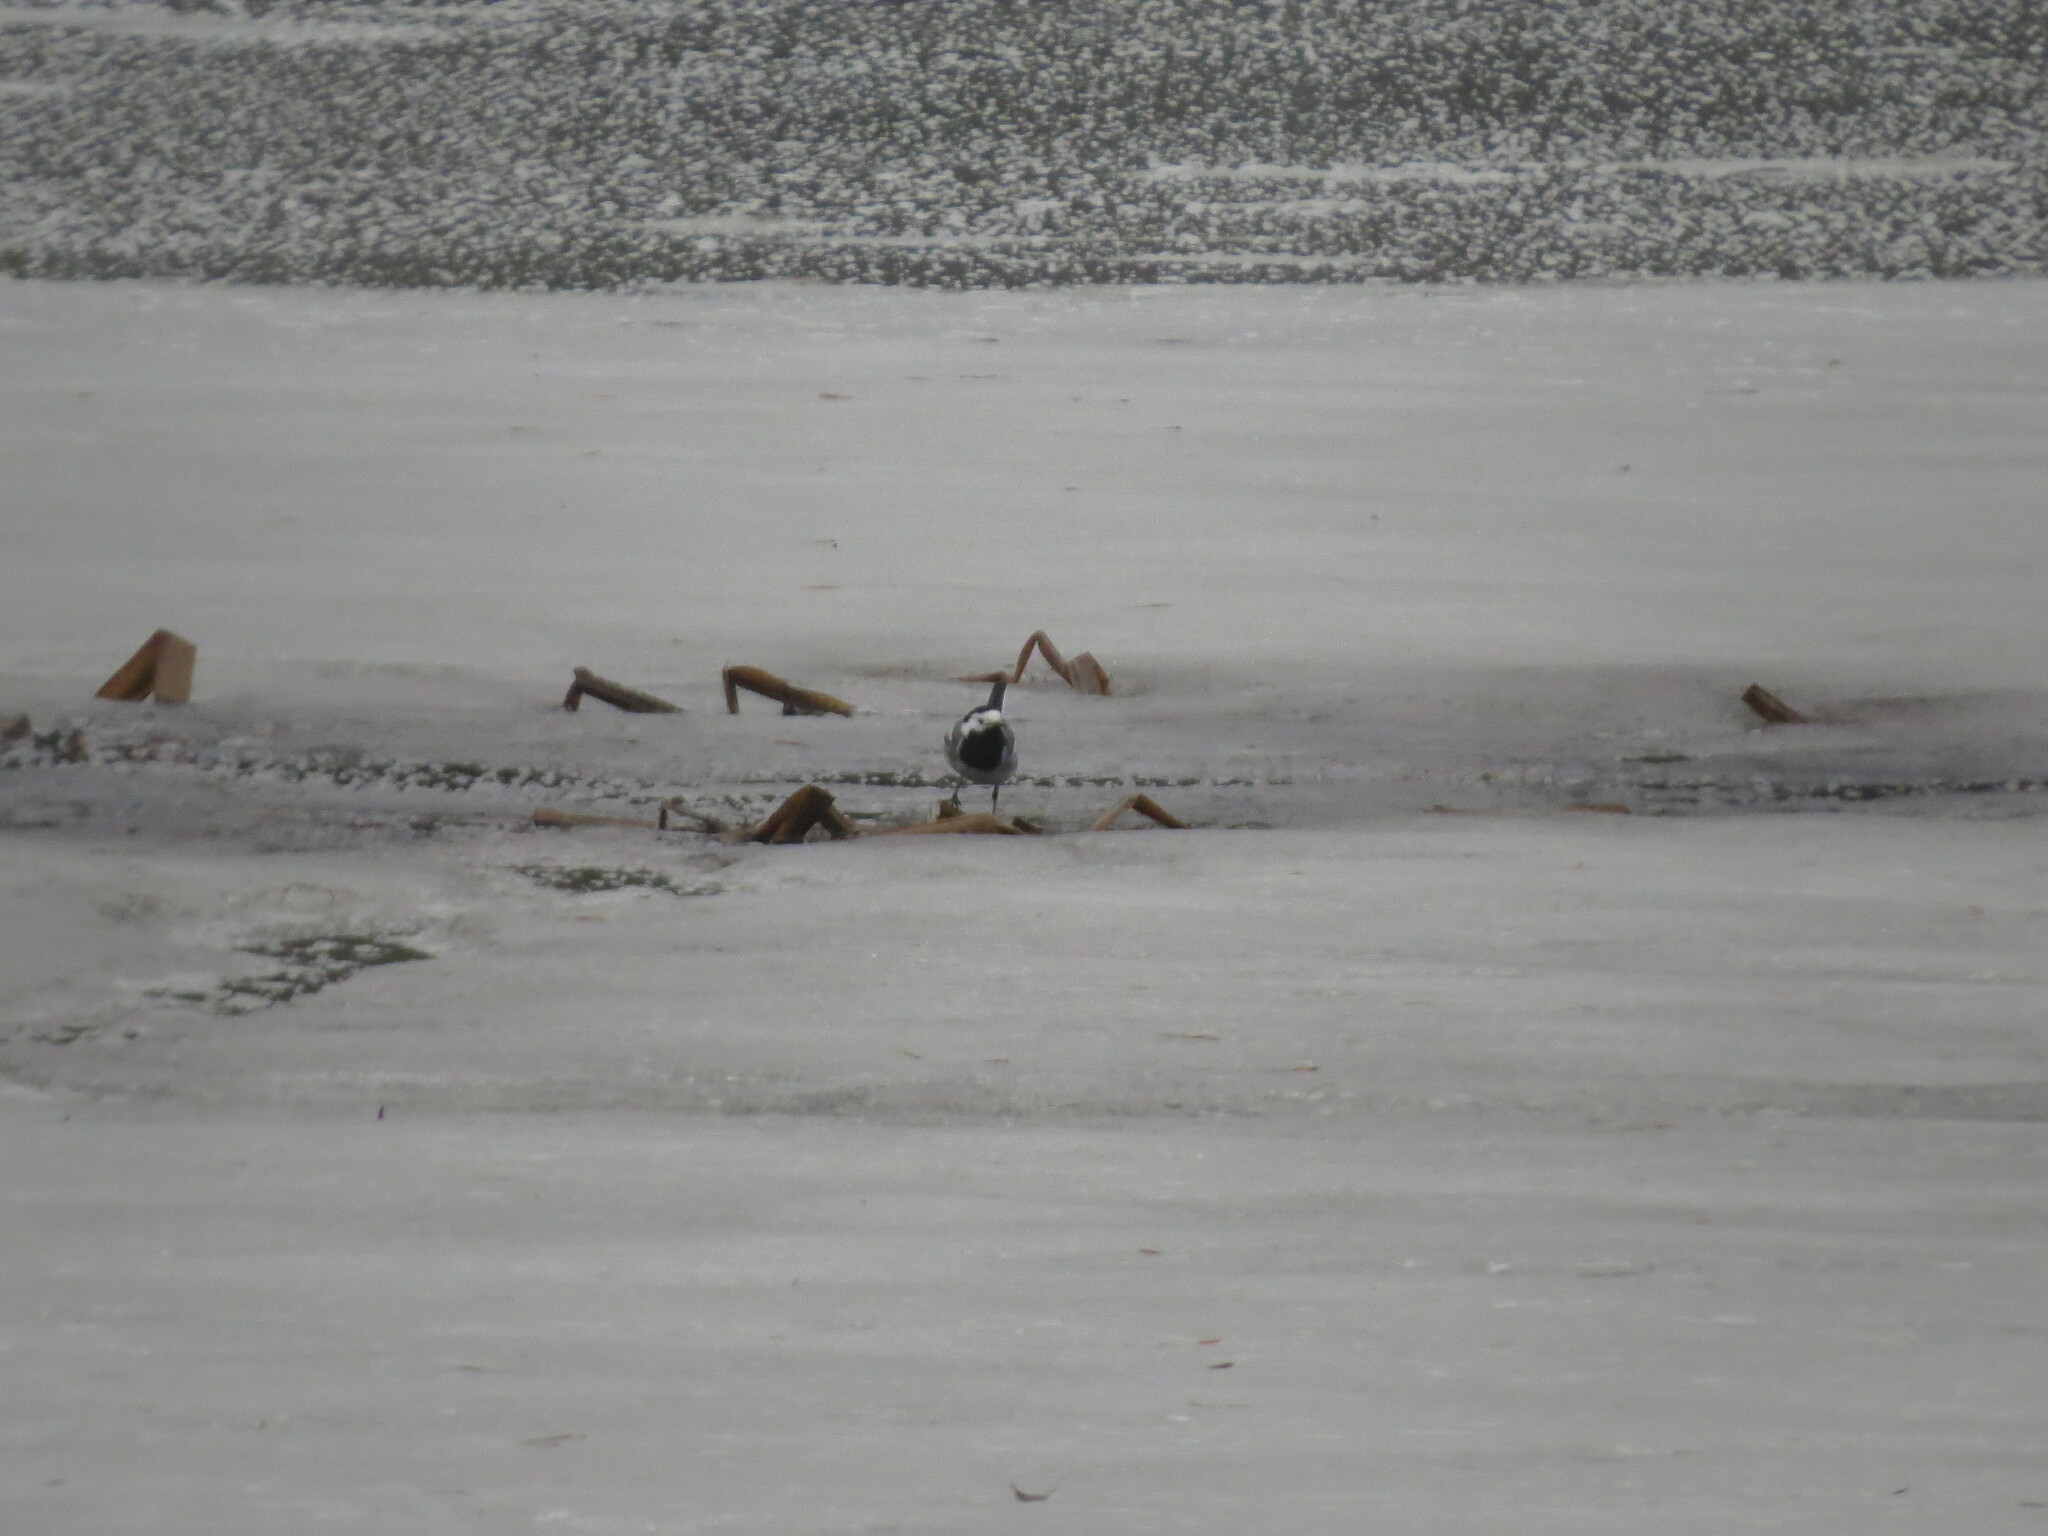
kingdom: Animalia
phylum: Chordata
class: Aves
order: Passeriformes
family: Motacillidae
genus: Motacilla
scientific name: Motacilla alba
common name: White wagtail
